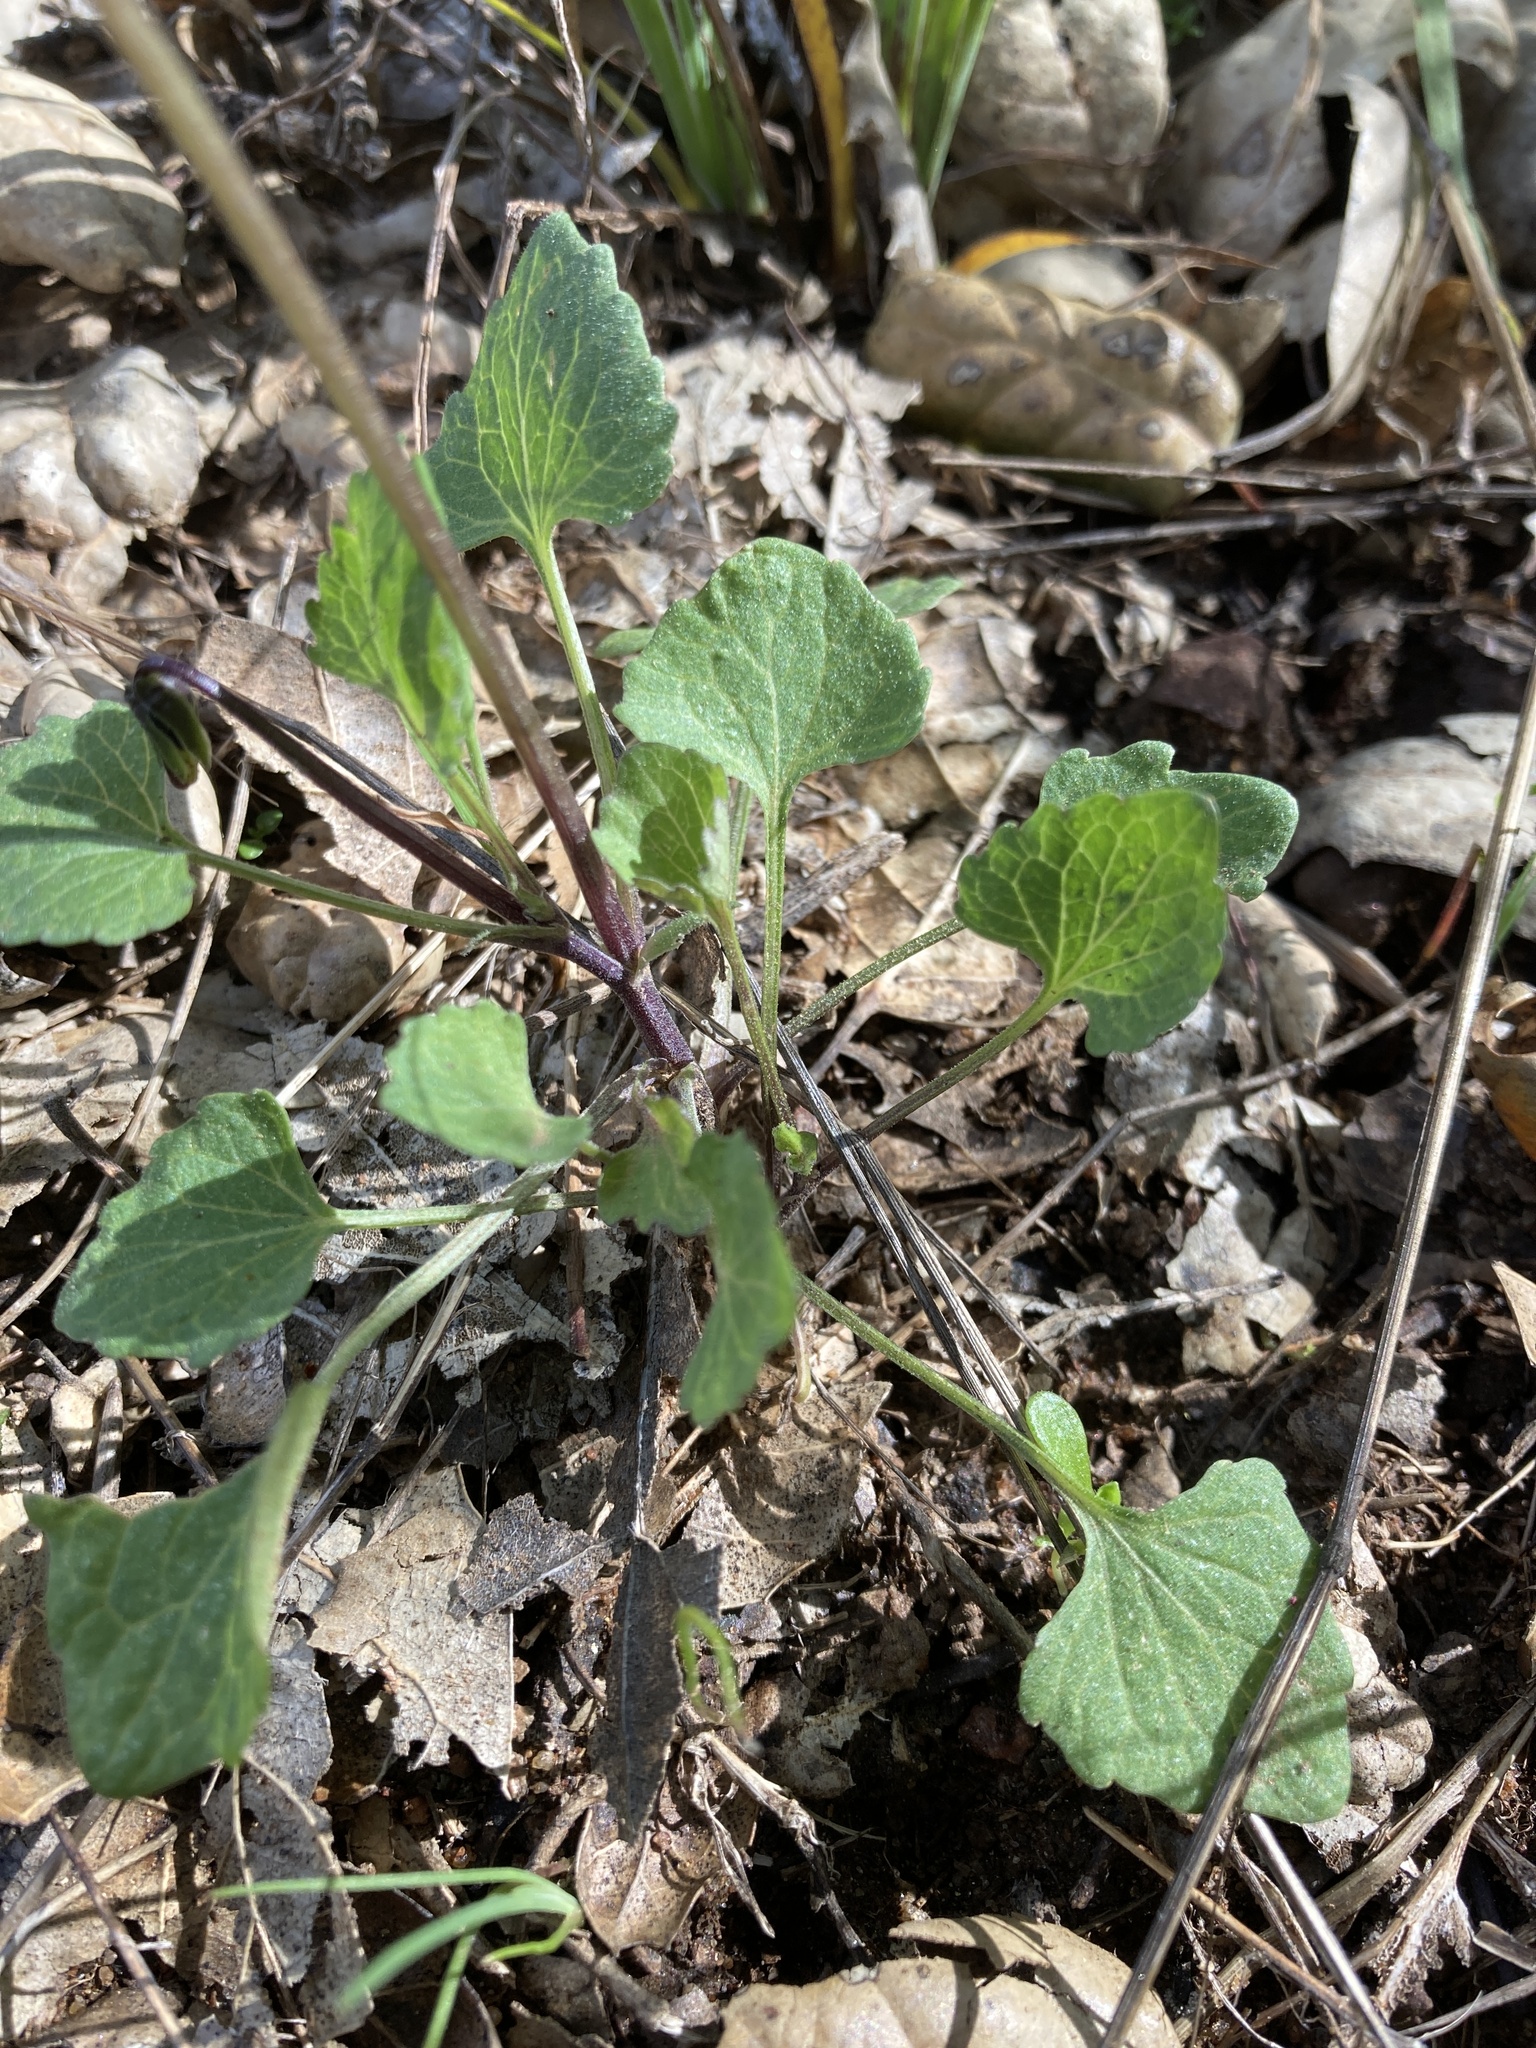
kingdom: Plantae
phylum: Tracheophyta
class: Magnoliopsida
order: Malpighiales
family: Violaceae
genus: Viola
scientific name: Viola pedunculata
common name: California golden violet
